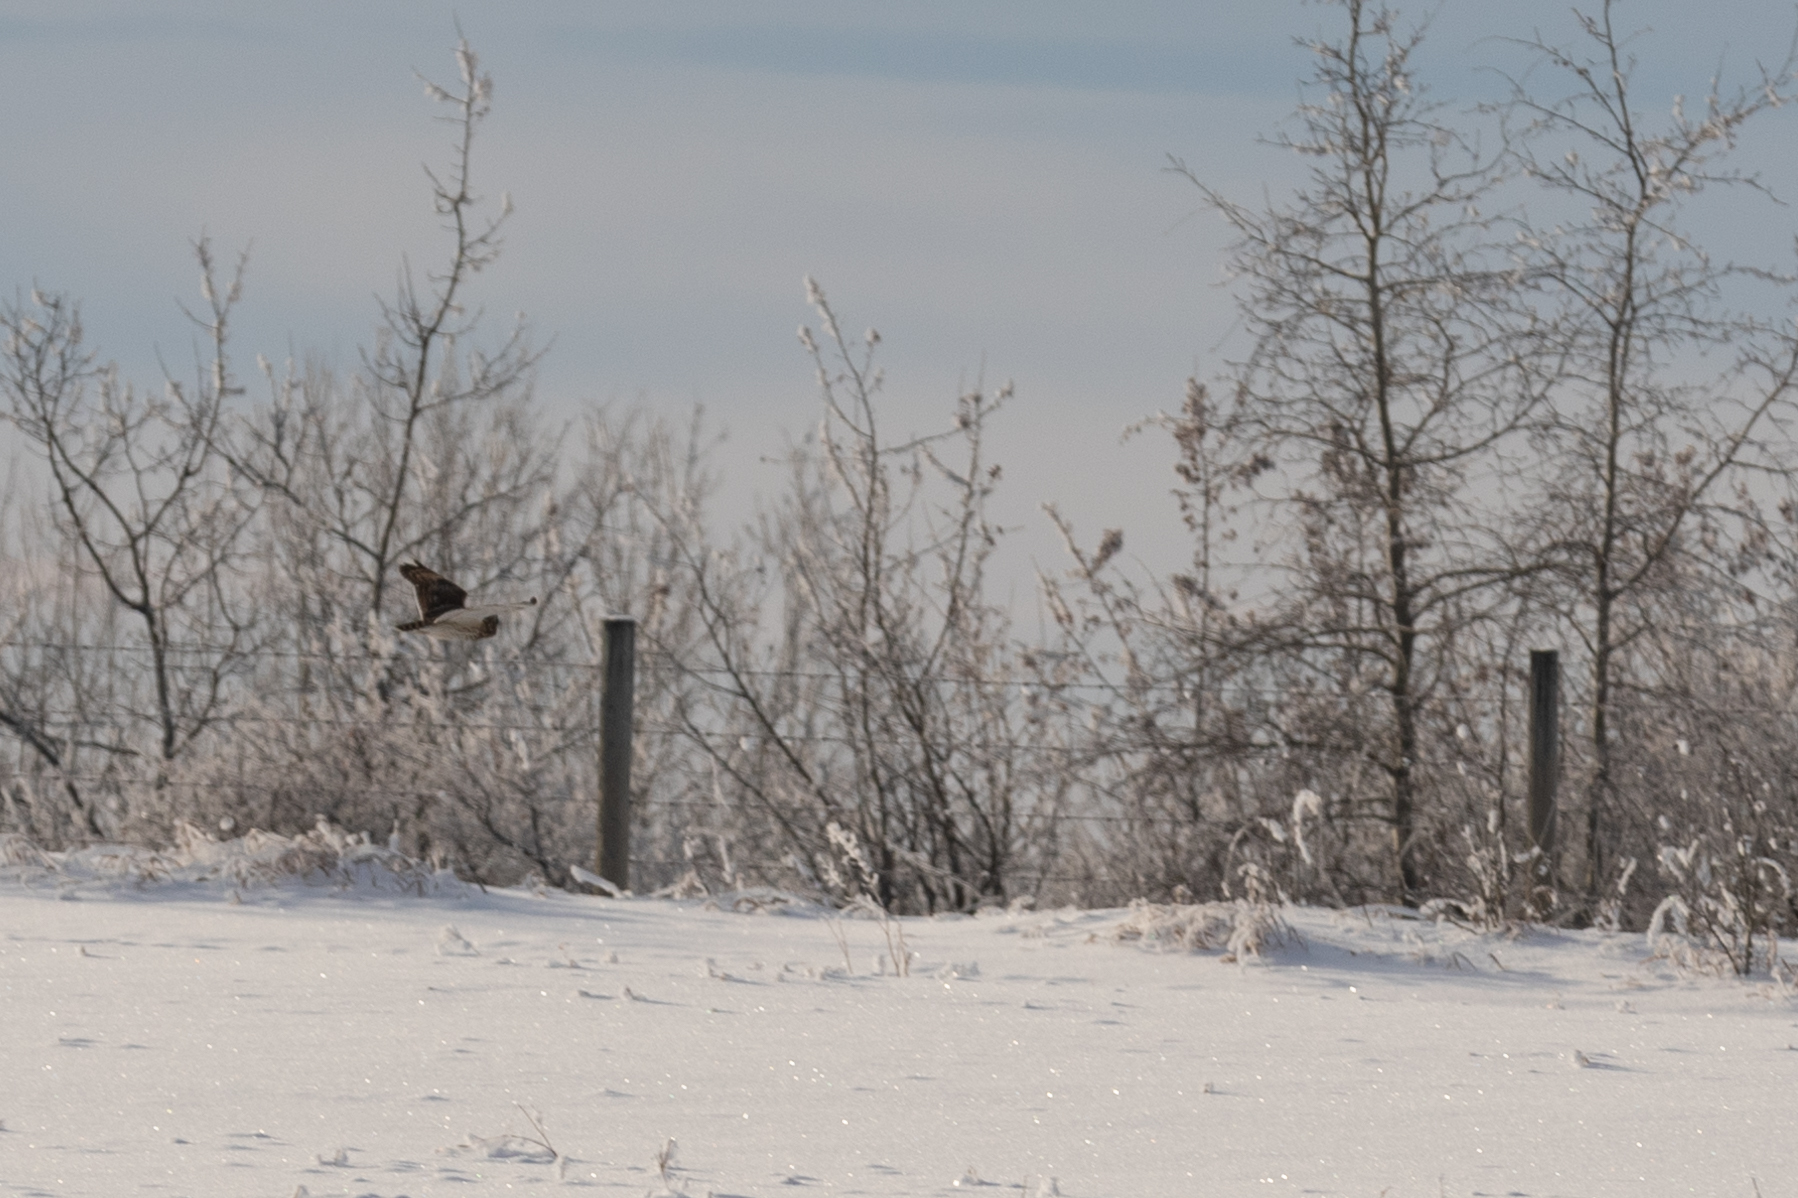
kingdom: Animalia
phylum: Chordata
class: Aves
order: Strigiformes
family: Strigidae
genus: Asio
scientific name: Asio flammeus
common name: Short-eared owl
